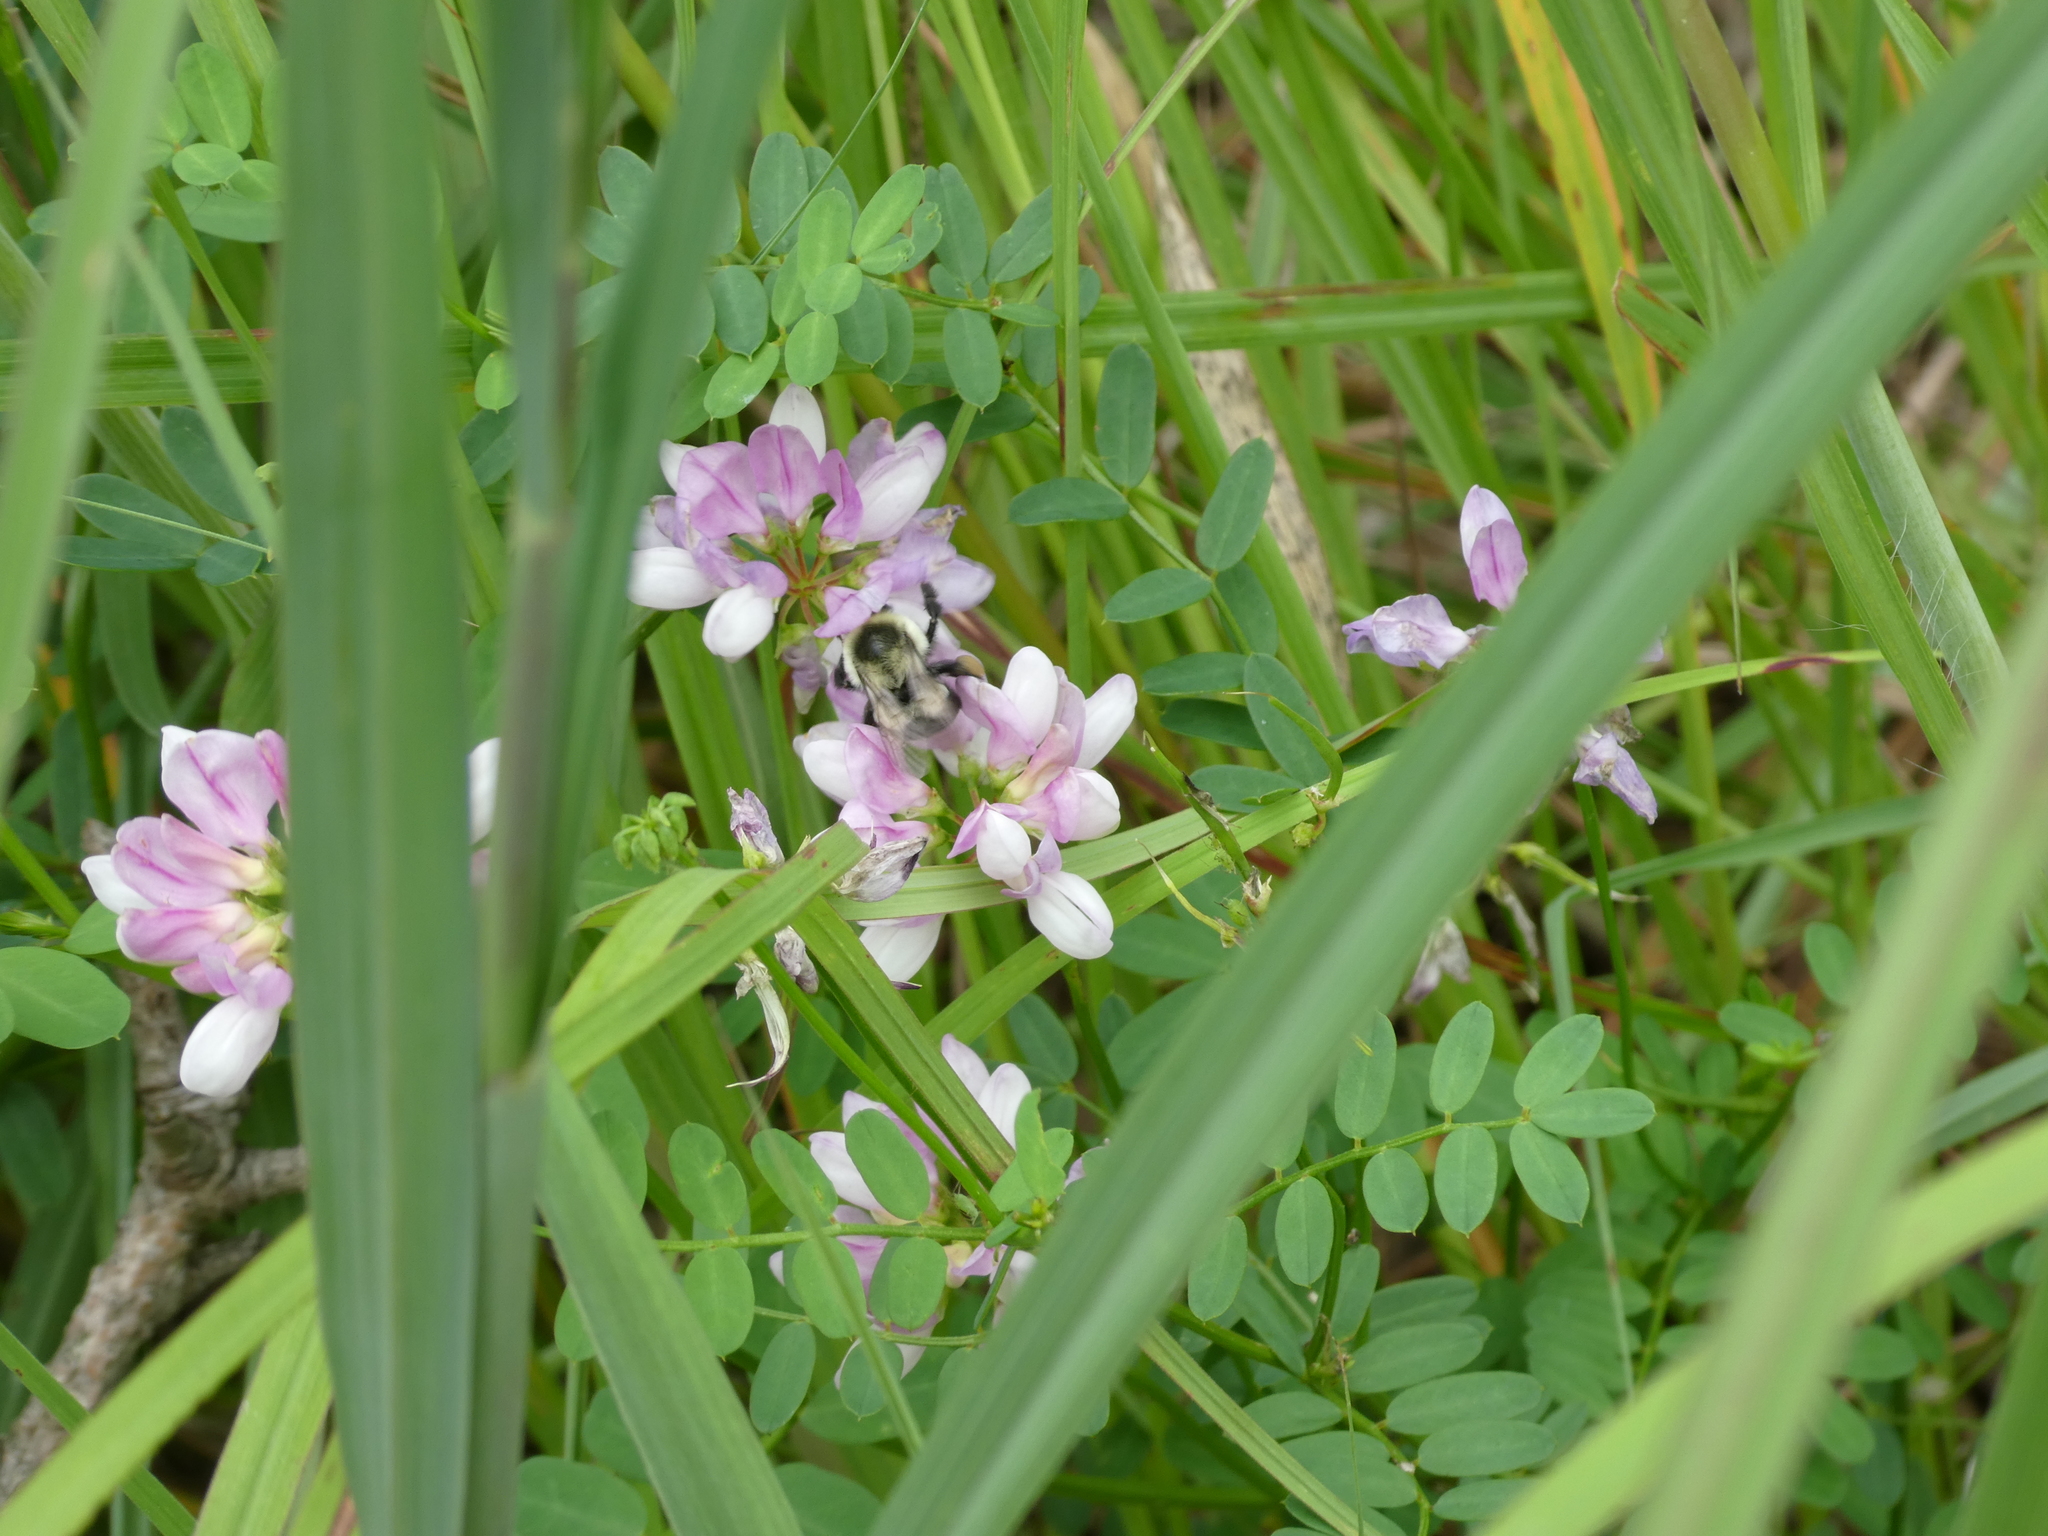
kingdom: Animalia
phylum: Arthropoda
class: Insecta
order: Hymenoptera
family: Apidae
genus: Bombus
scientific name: Bombus impatiens
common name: Common eastern bumble bee
